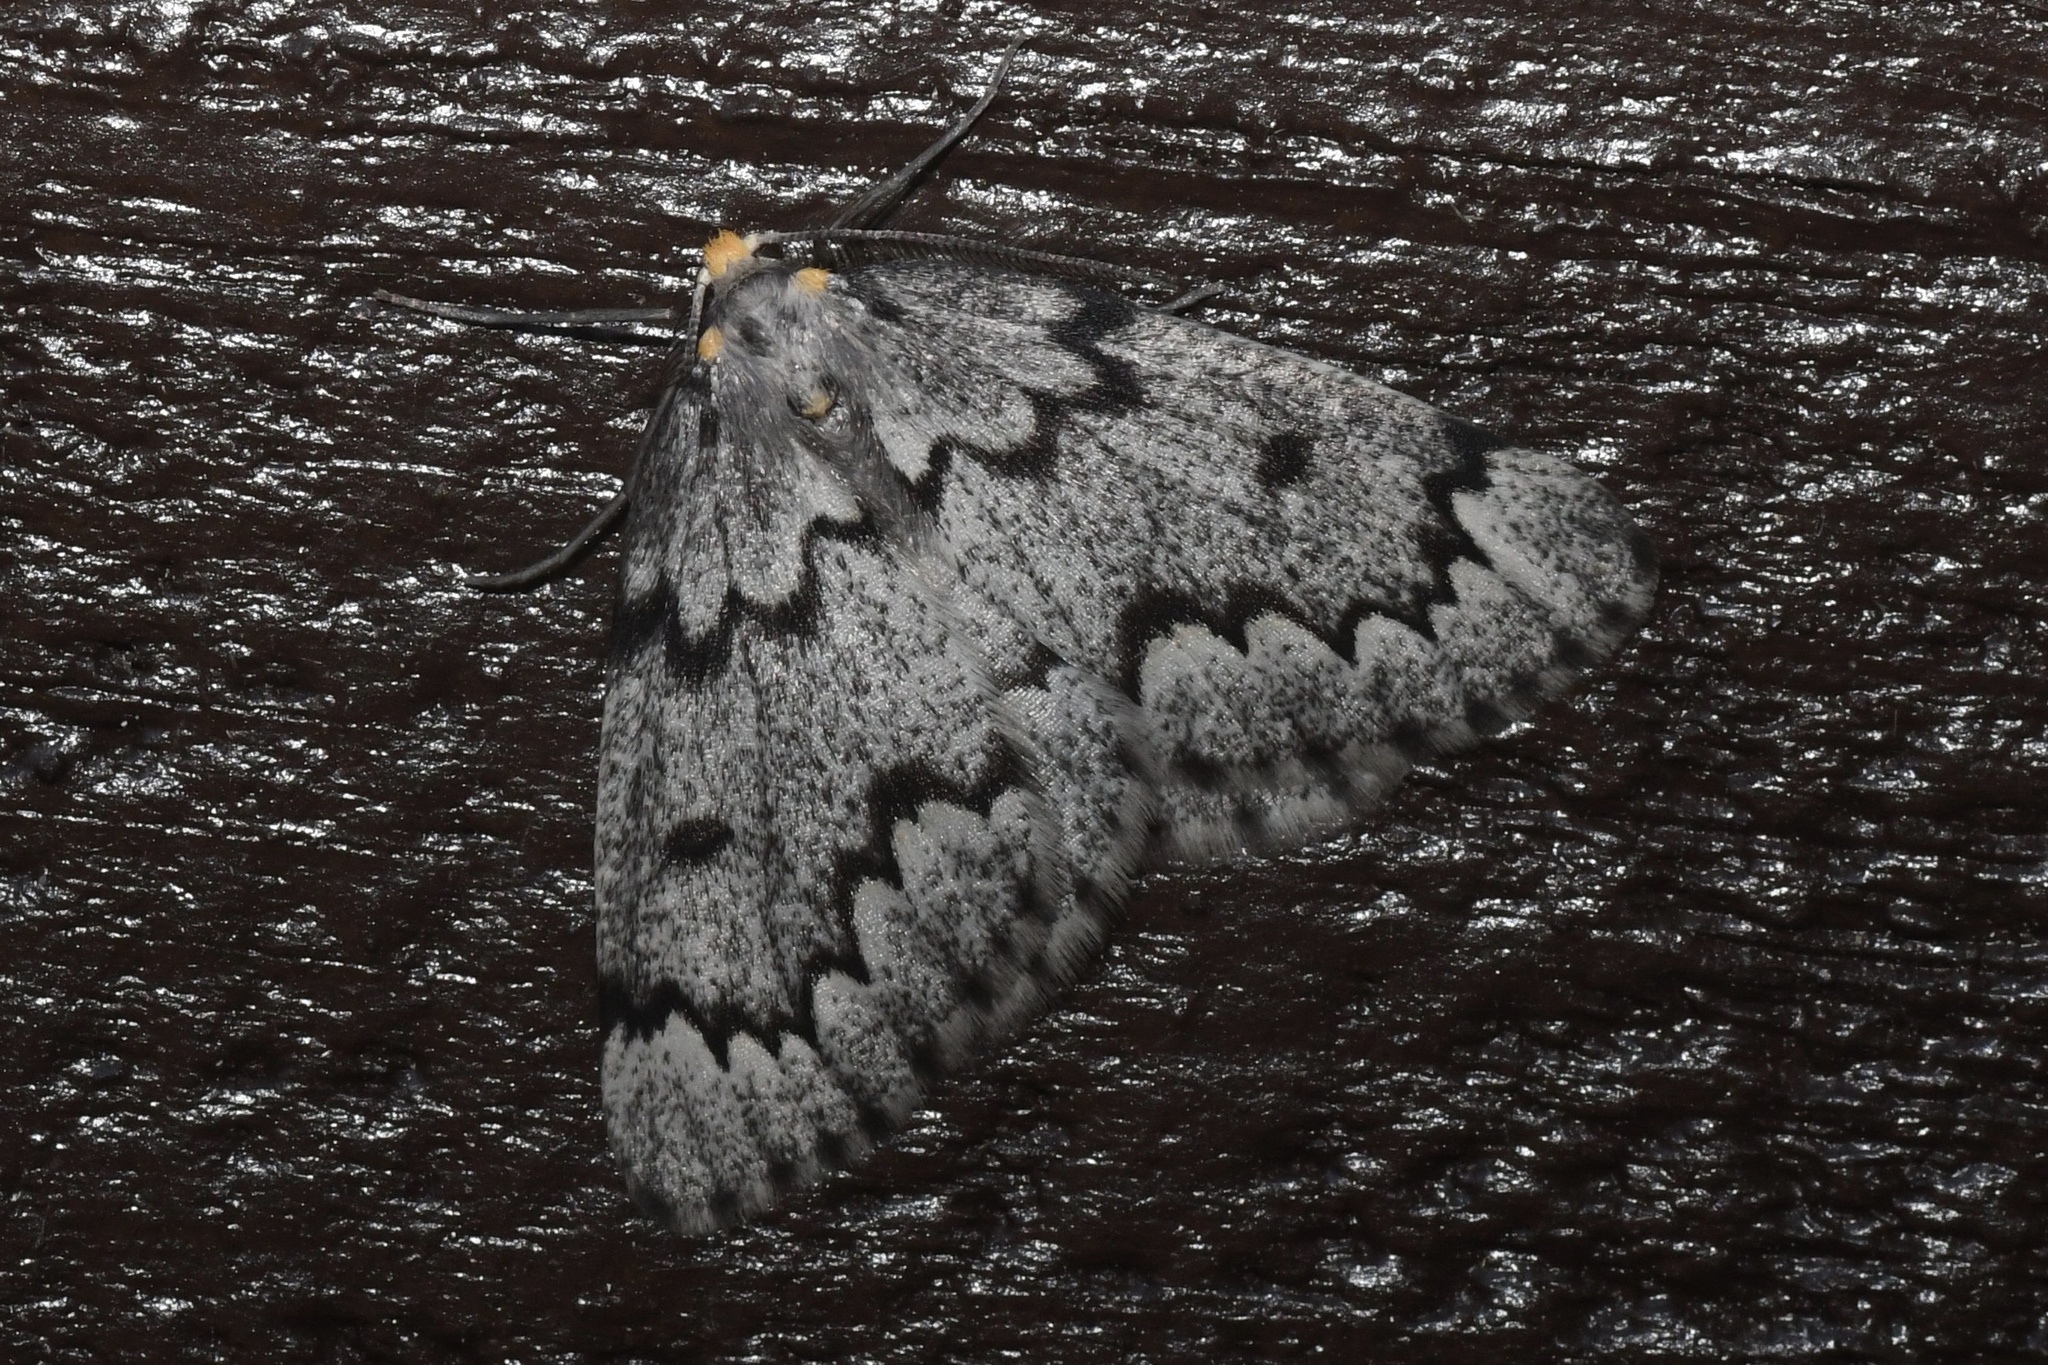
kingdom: Animalia
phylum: Arthropoda
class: Insecta
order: Lepidoptera
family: Geometridae
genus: Nepytia
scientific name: Nepytia canosaria
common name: False hemlock looper
